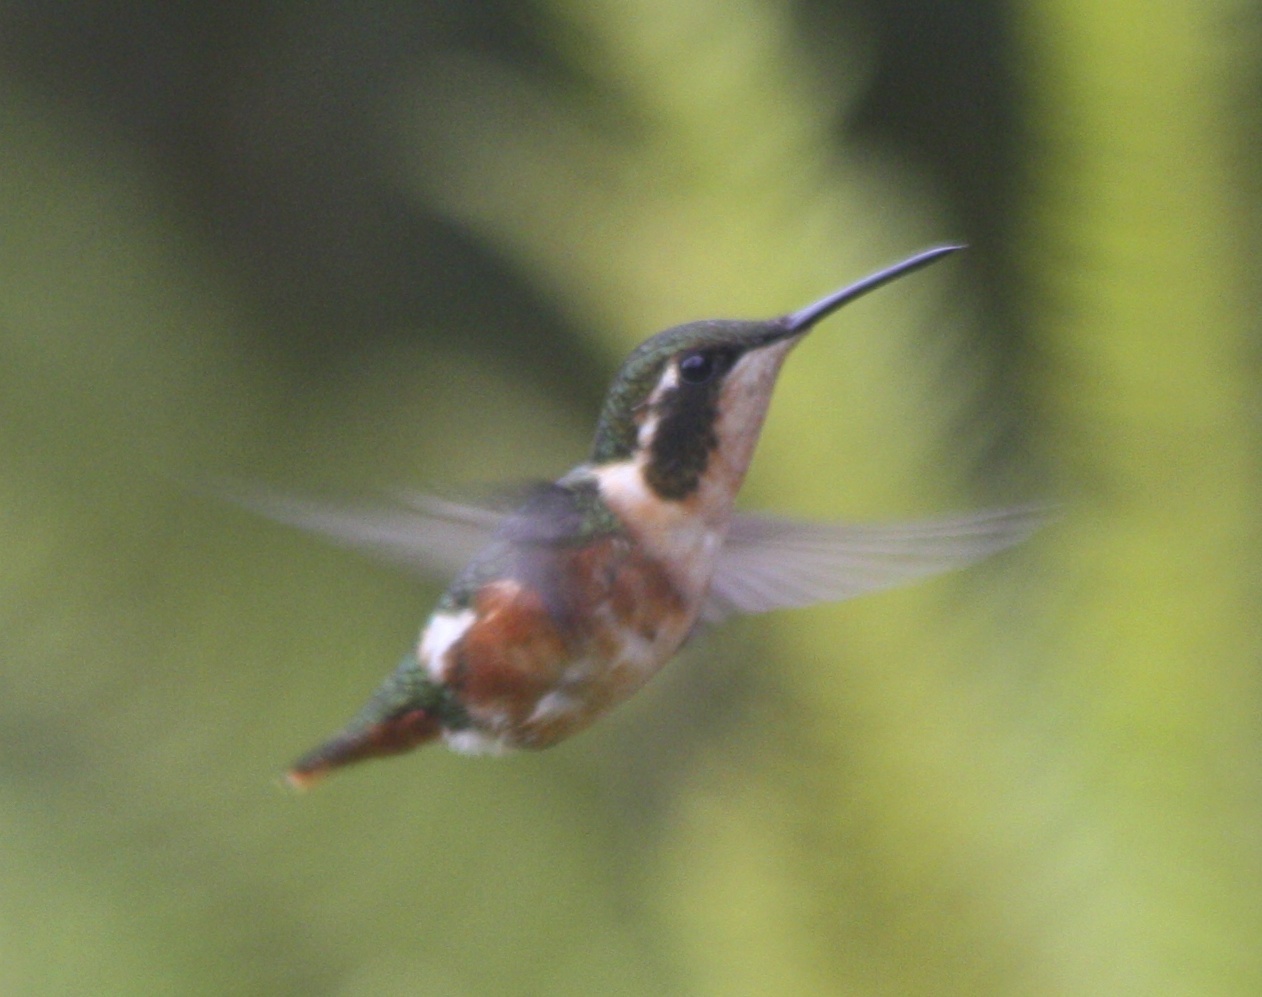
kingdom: Animalia
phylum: Chordata
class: Aves
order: Apodiformes
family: Trochilidae
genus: Chaetocercus
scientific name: Chaetocercus mulsant
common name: White-bellied woodstar
